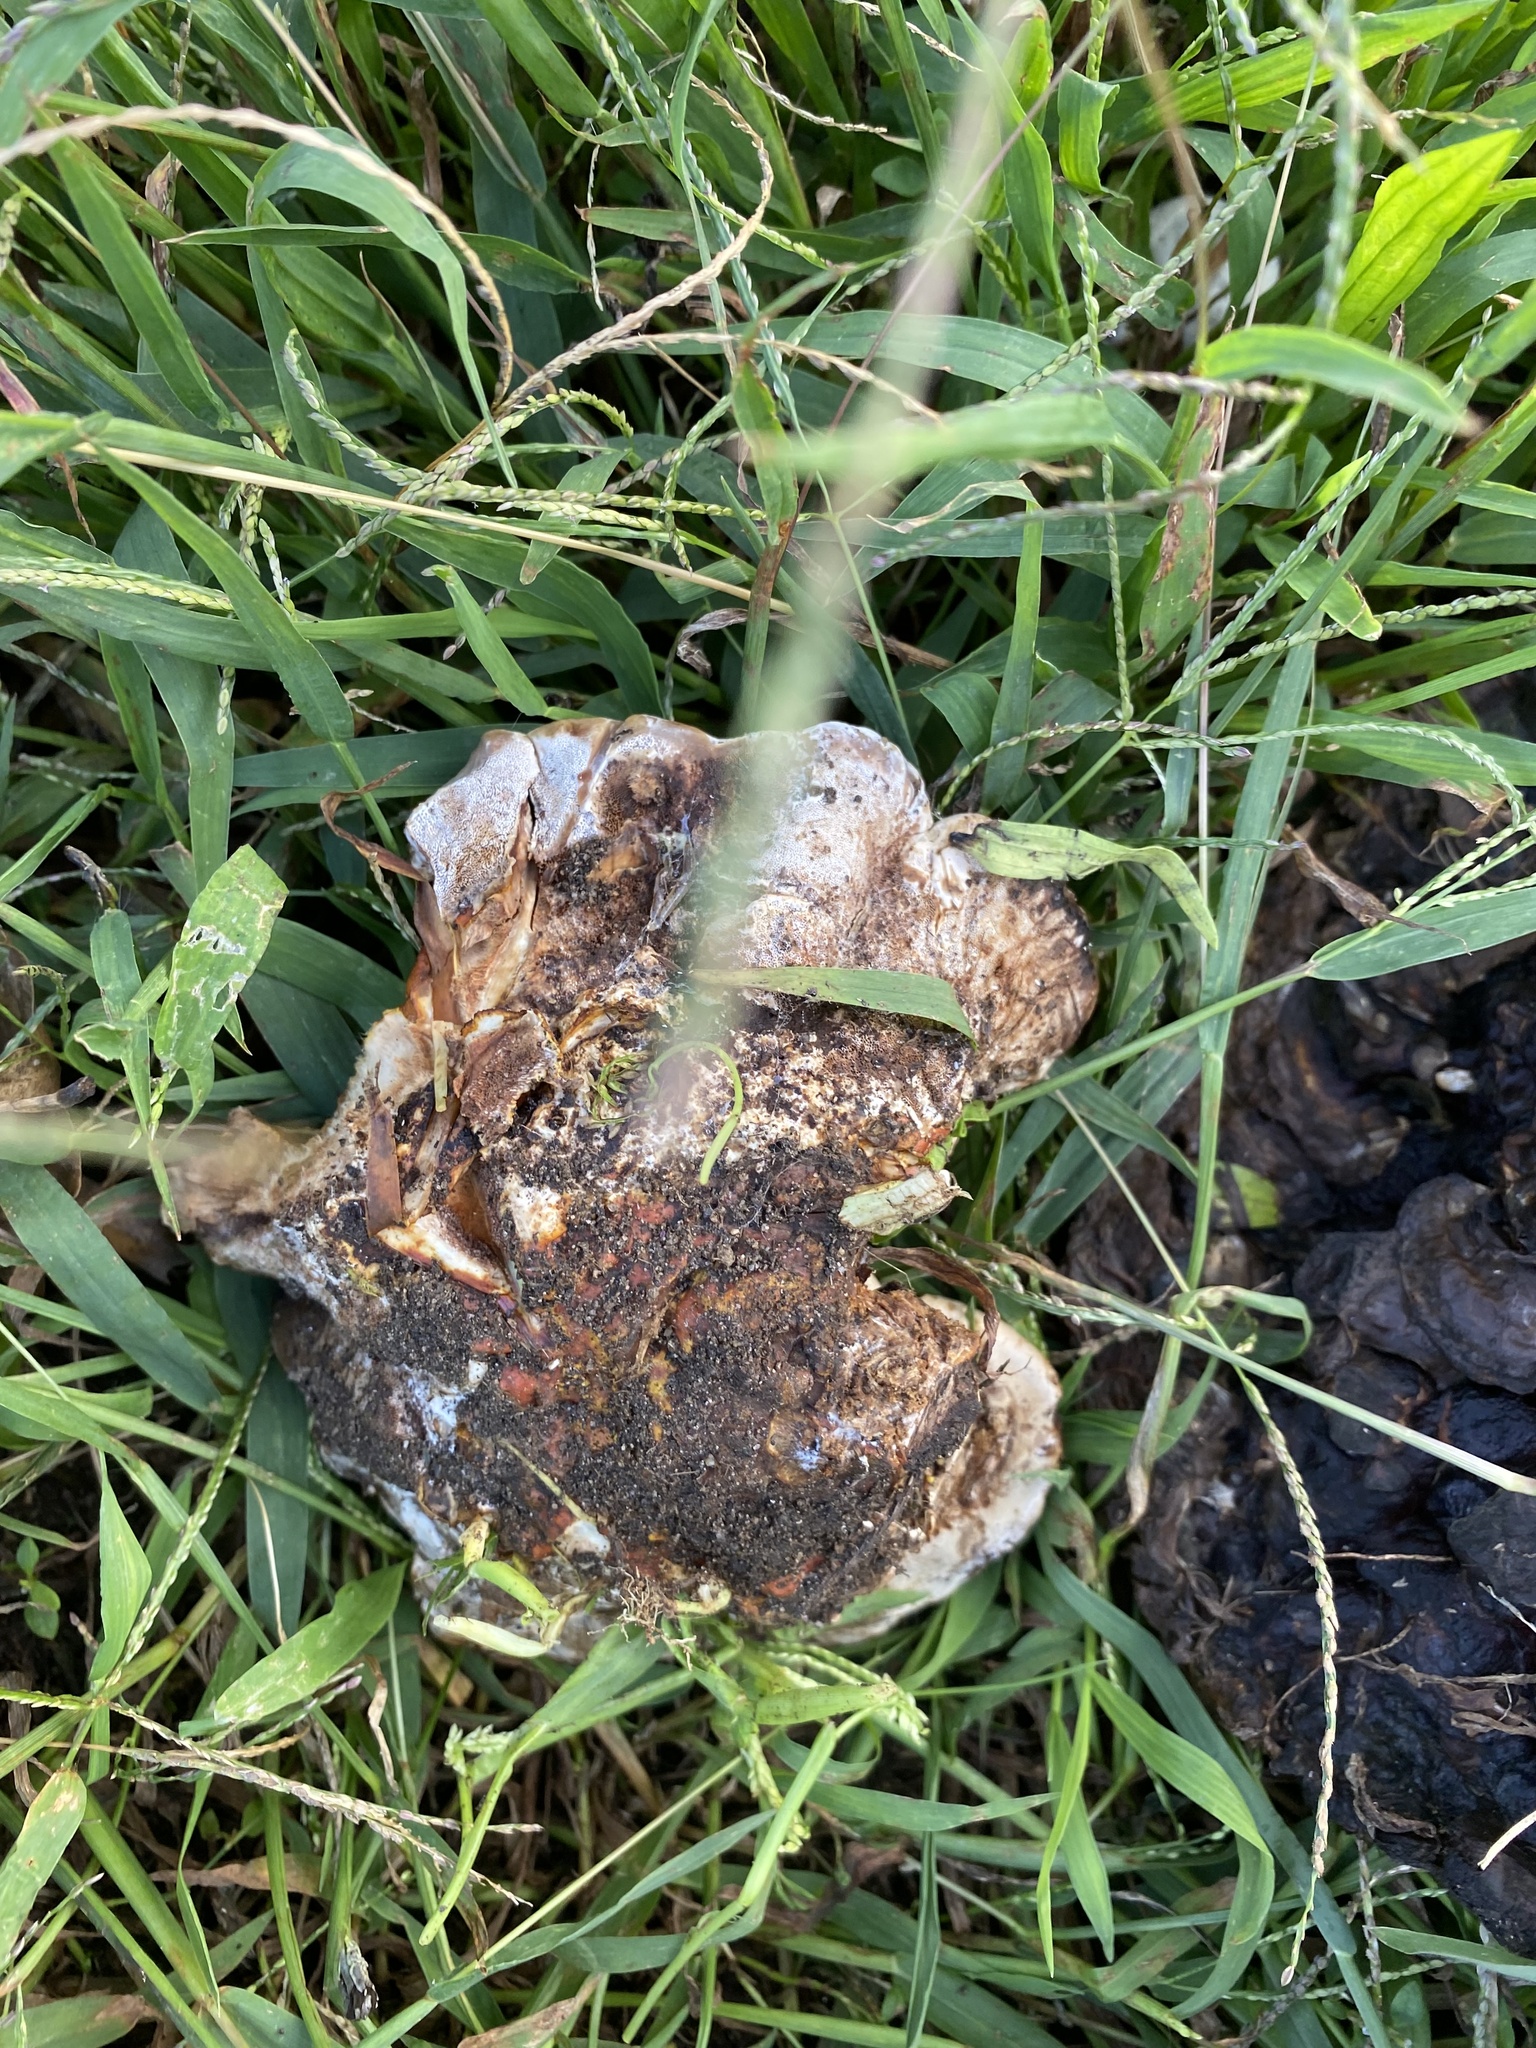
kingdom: Fungi
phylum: Basidiomycota
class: Agaricomycetes
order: Polyporales
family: Polyporaceae
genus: Ganoderma
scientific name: Ganoderma resinaceum
